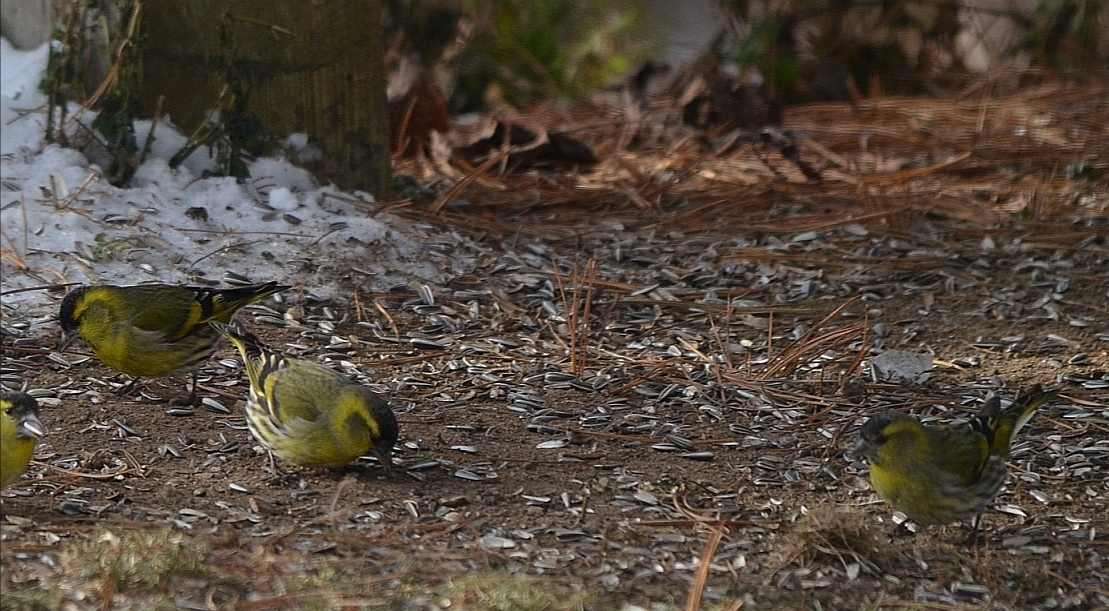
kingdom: Animalia
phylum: Chordata
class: Aves
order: Passeriformes
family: Fringillidae
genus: Spinus
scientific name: Spinus spinus
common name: Eurasian siskin
